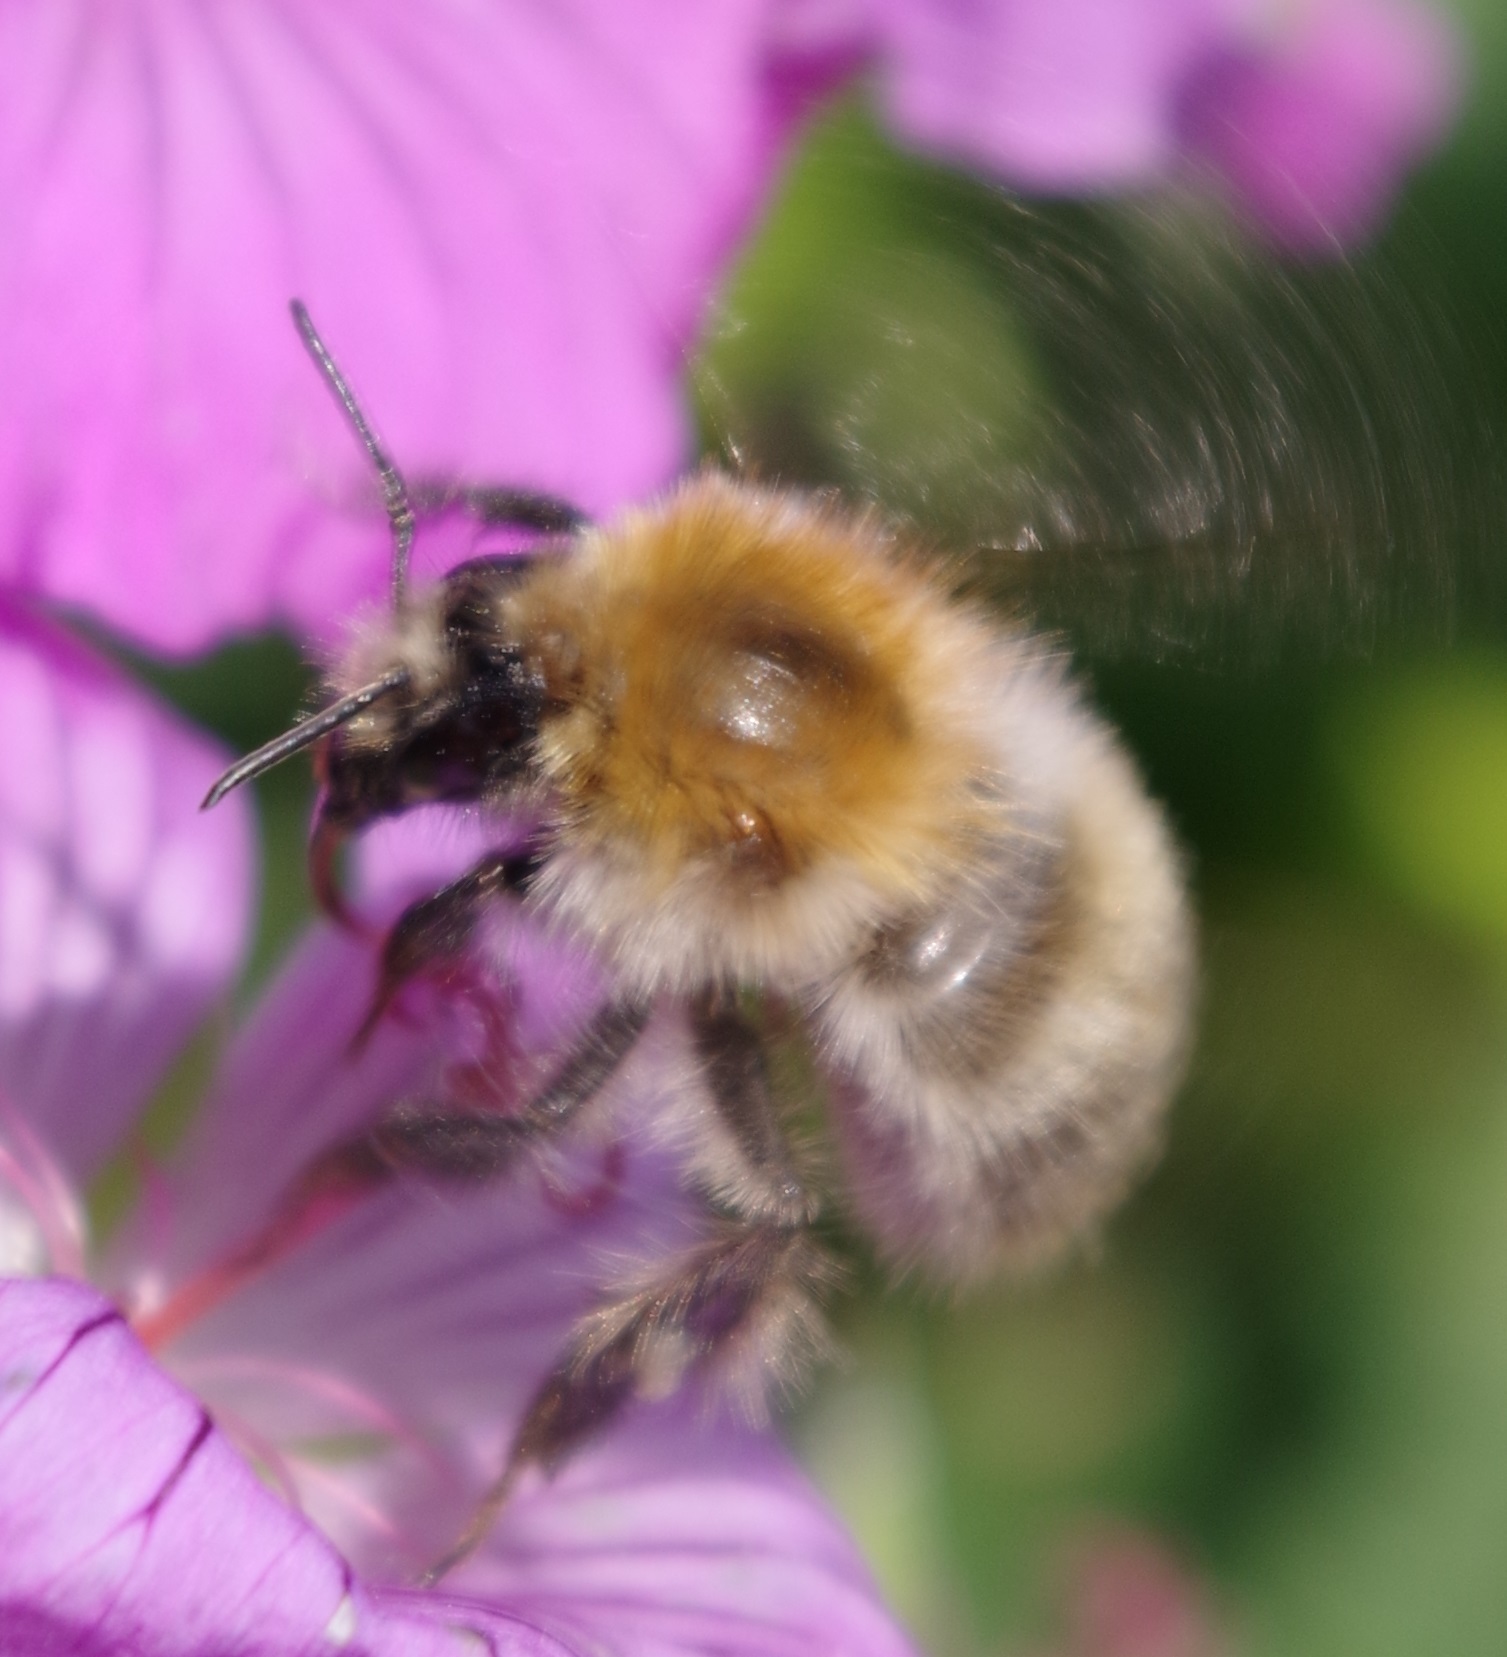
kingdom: Animalia
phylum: Arthropoda
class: Insecta
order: Hymenoptera
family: Apidae
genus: Bombus
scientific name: Bombus pascuorum
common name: Common carder bee
